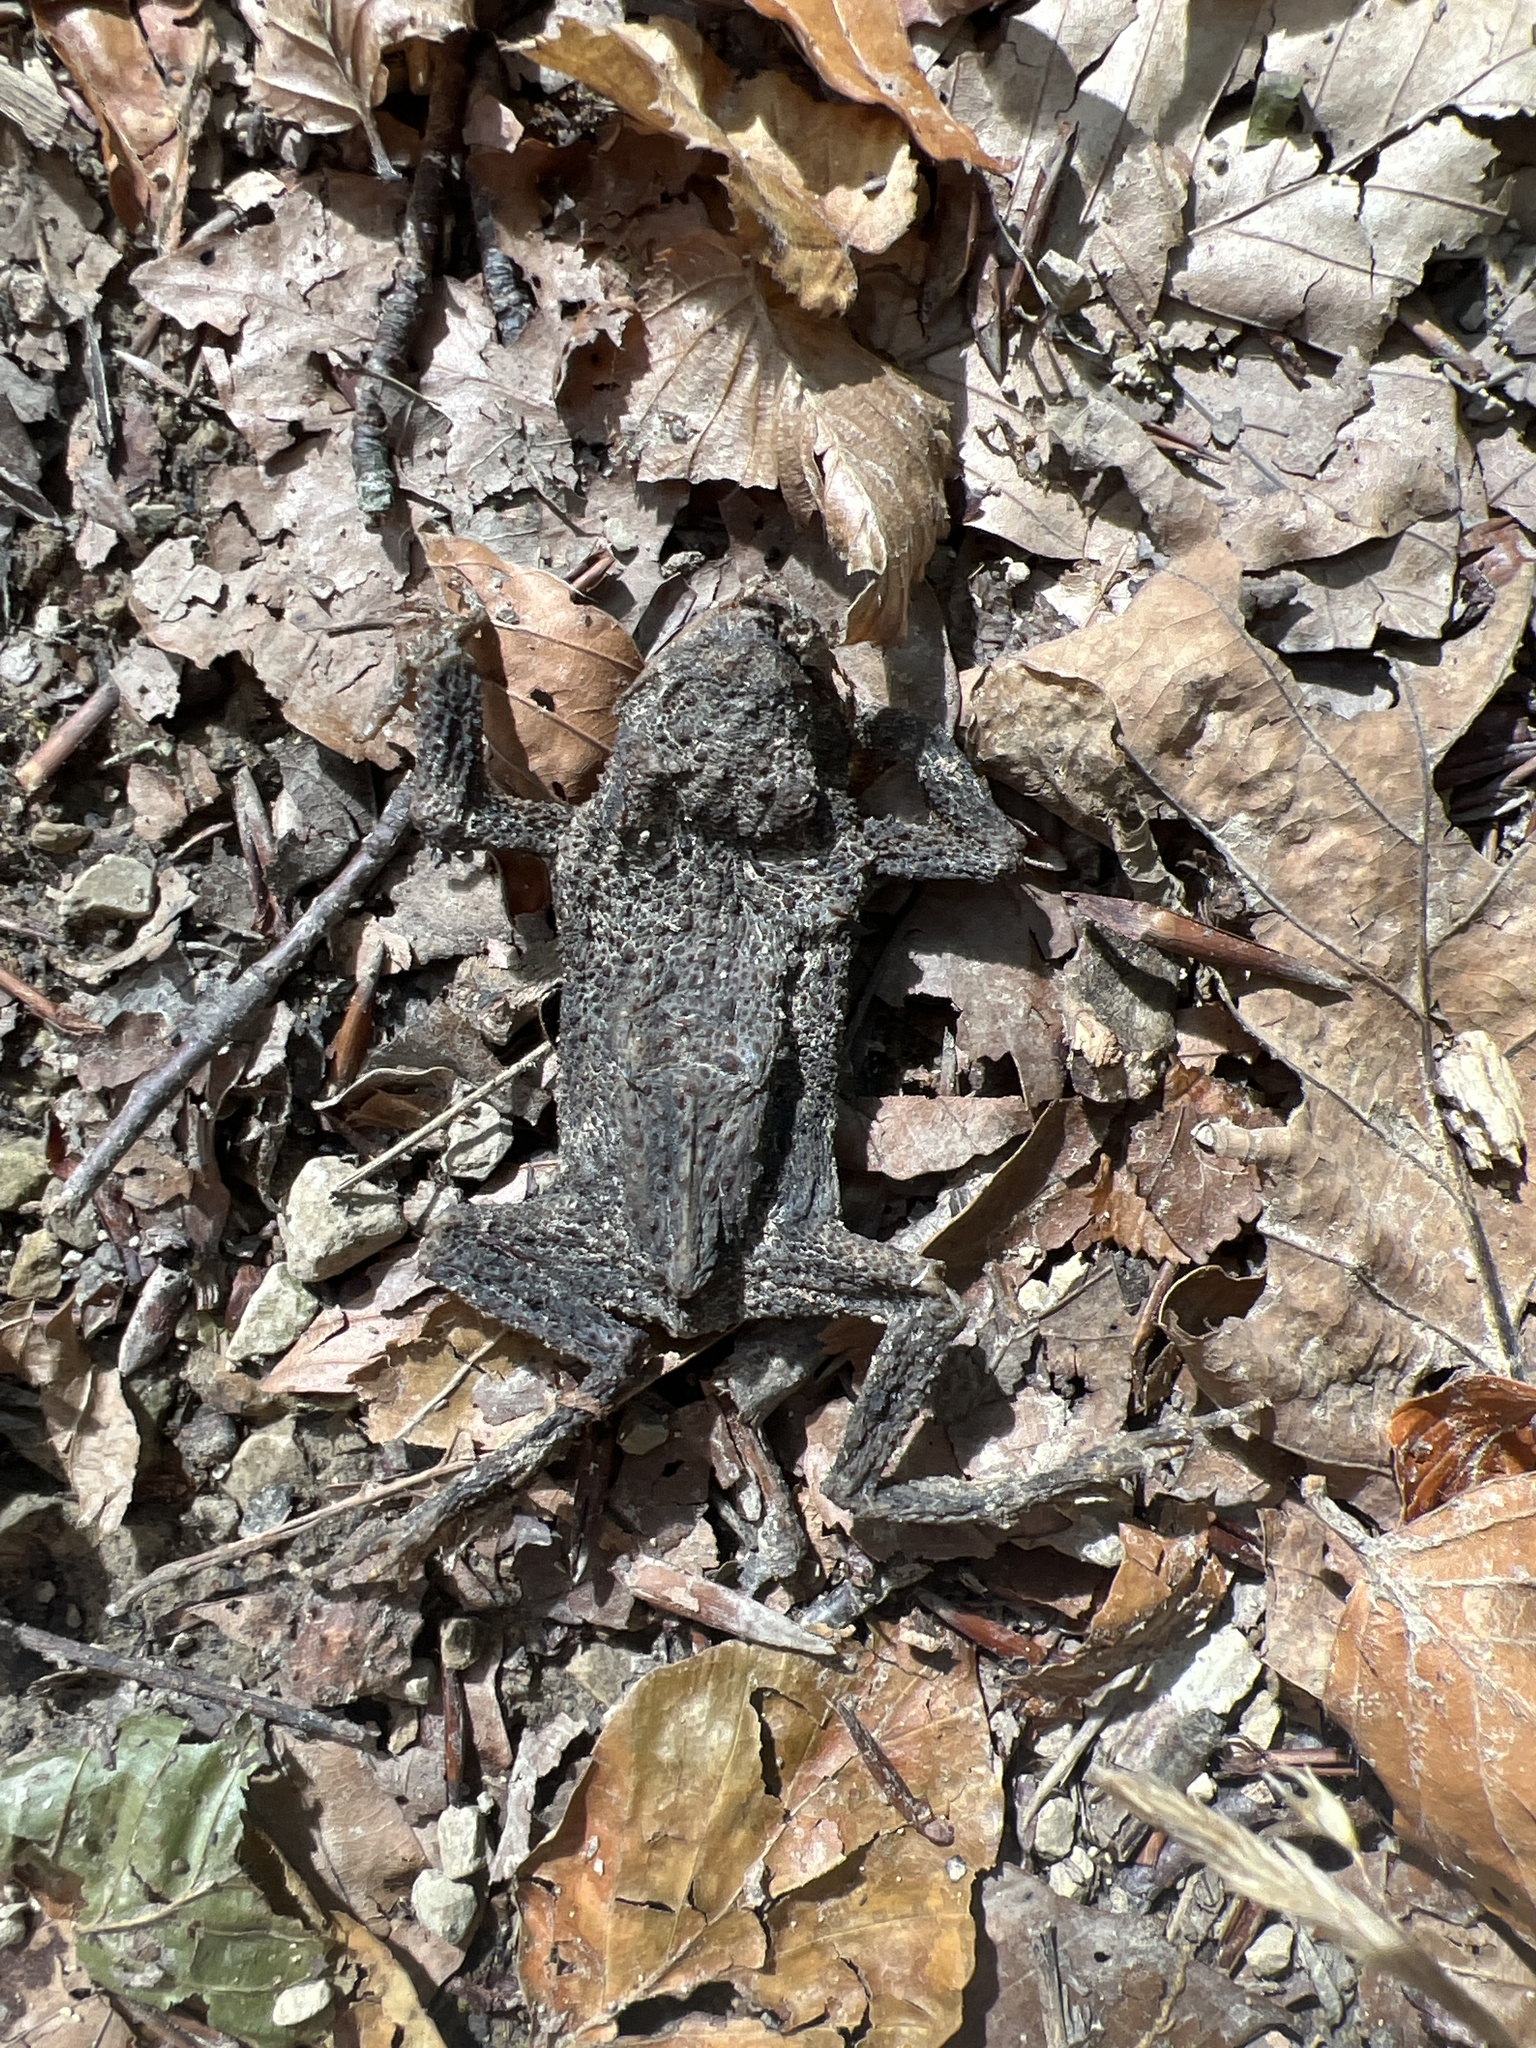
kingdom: Animalia
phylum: Chordata
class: Amphibia
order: Anura
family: Bufonidae
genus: Bufo
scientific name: Bufo bufo
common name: Common toad
